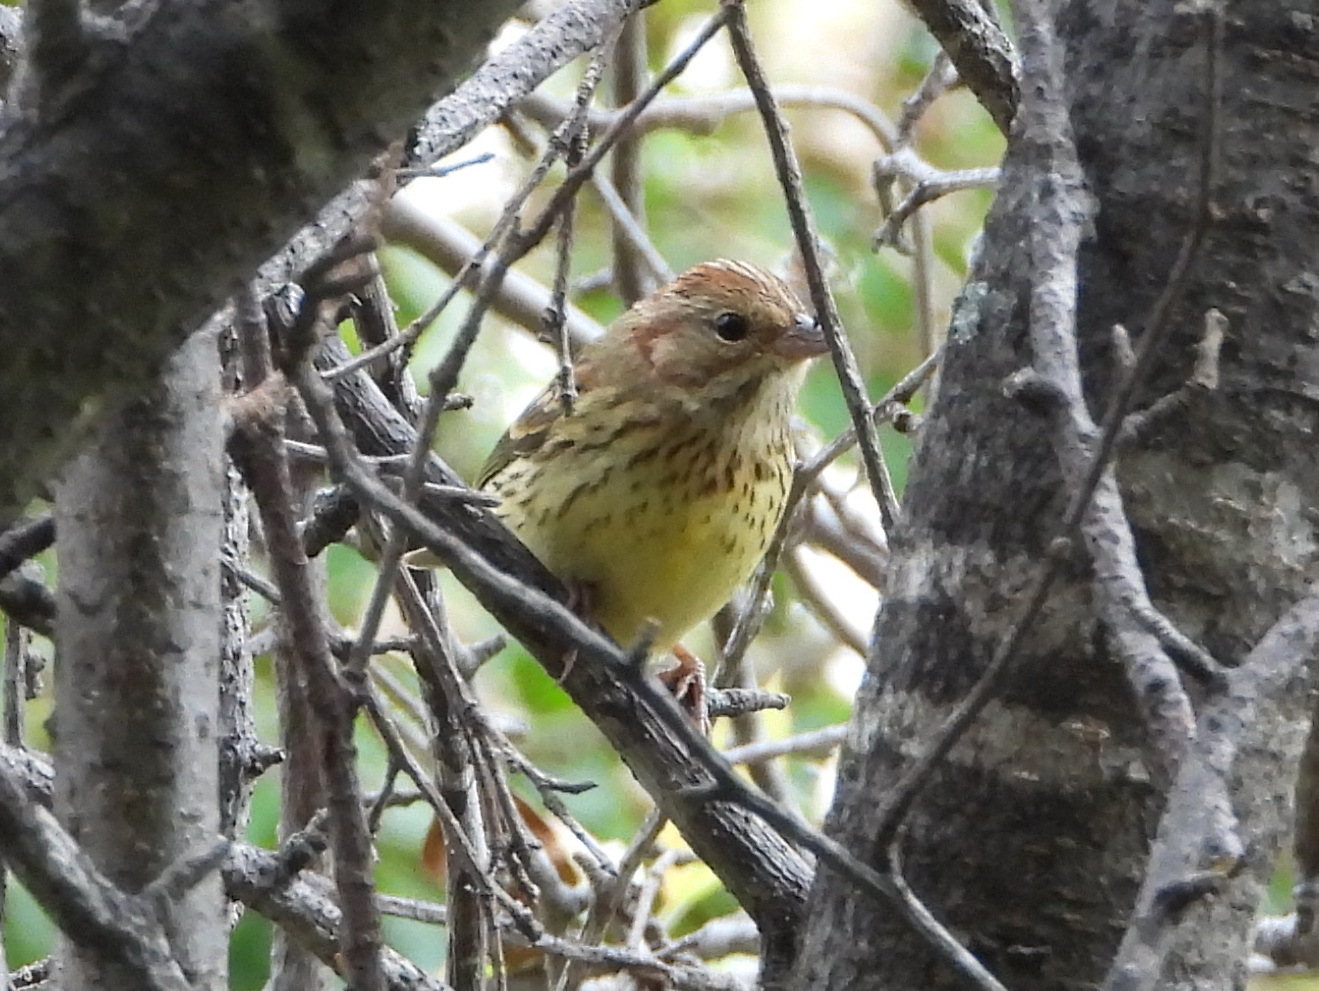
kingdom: Animalia
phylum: Chordata
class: Aves
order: Passeriformes
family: Emberizidae
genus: Emberiza
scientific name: Emberiza rutila
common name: Chestnut bunting
